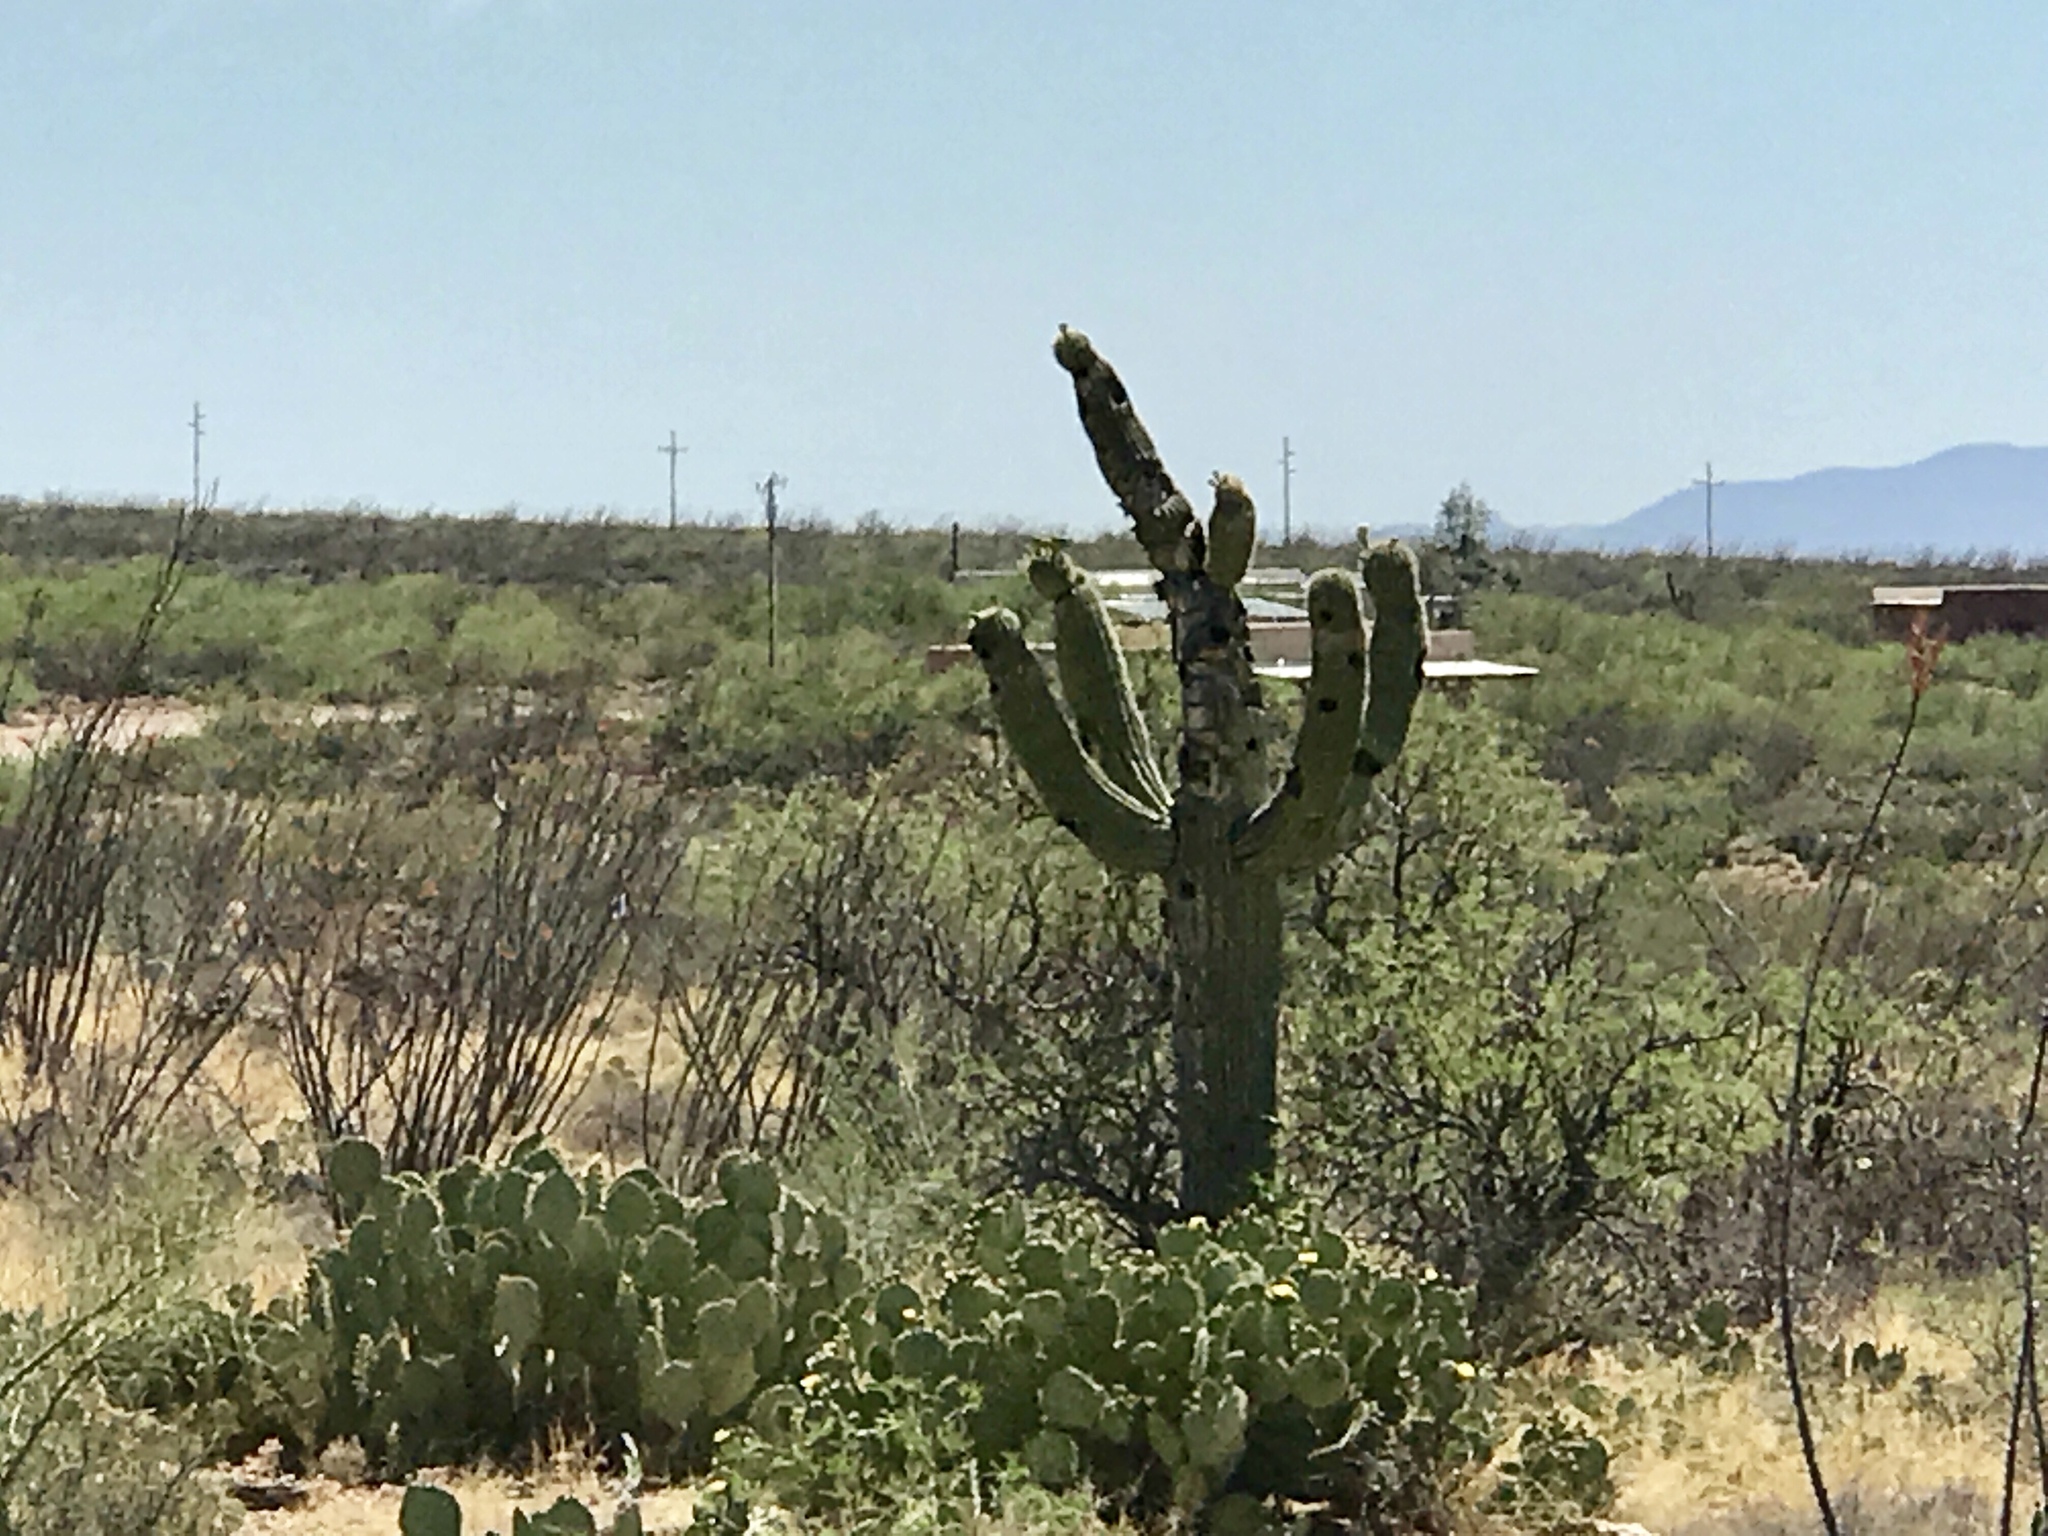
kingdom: Plantae
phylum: Tracheophyta
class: Magnoliopsida
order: Caryophyllales
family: Cactaceae
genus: Carnegiea
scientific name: Carnegiea gigantea
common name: Saguaro
